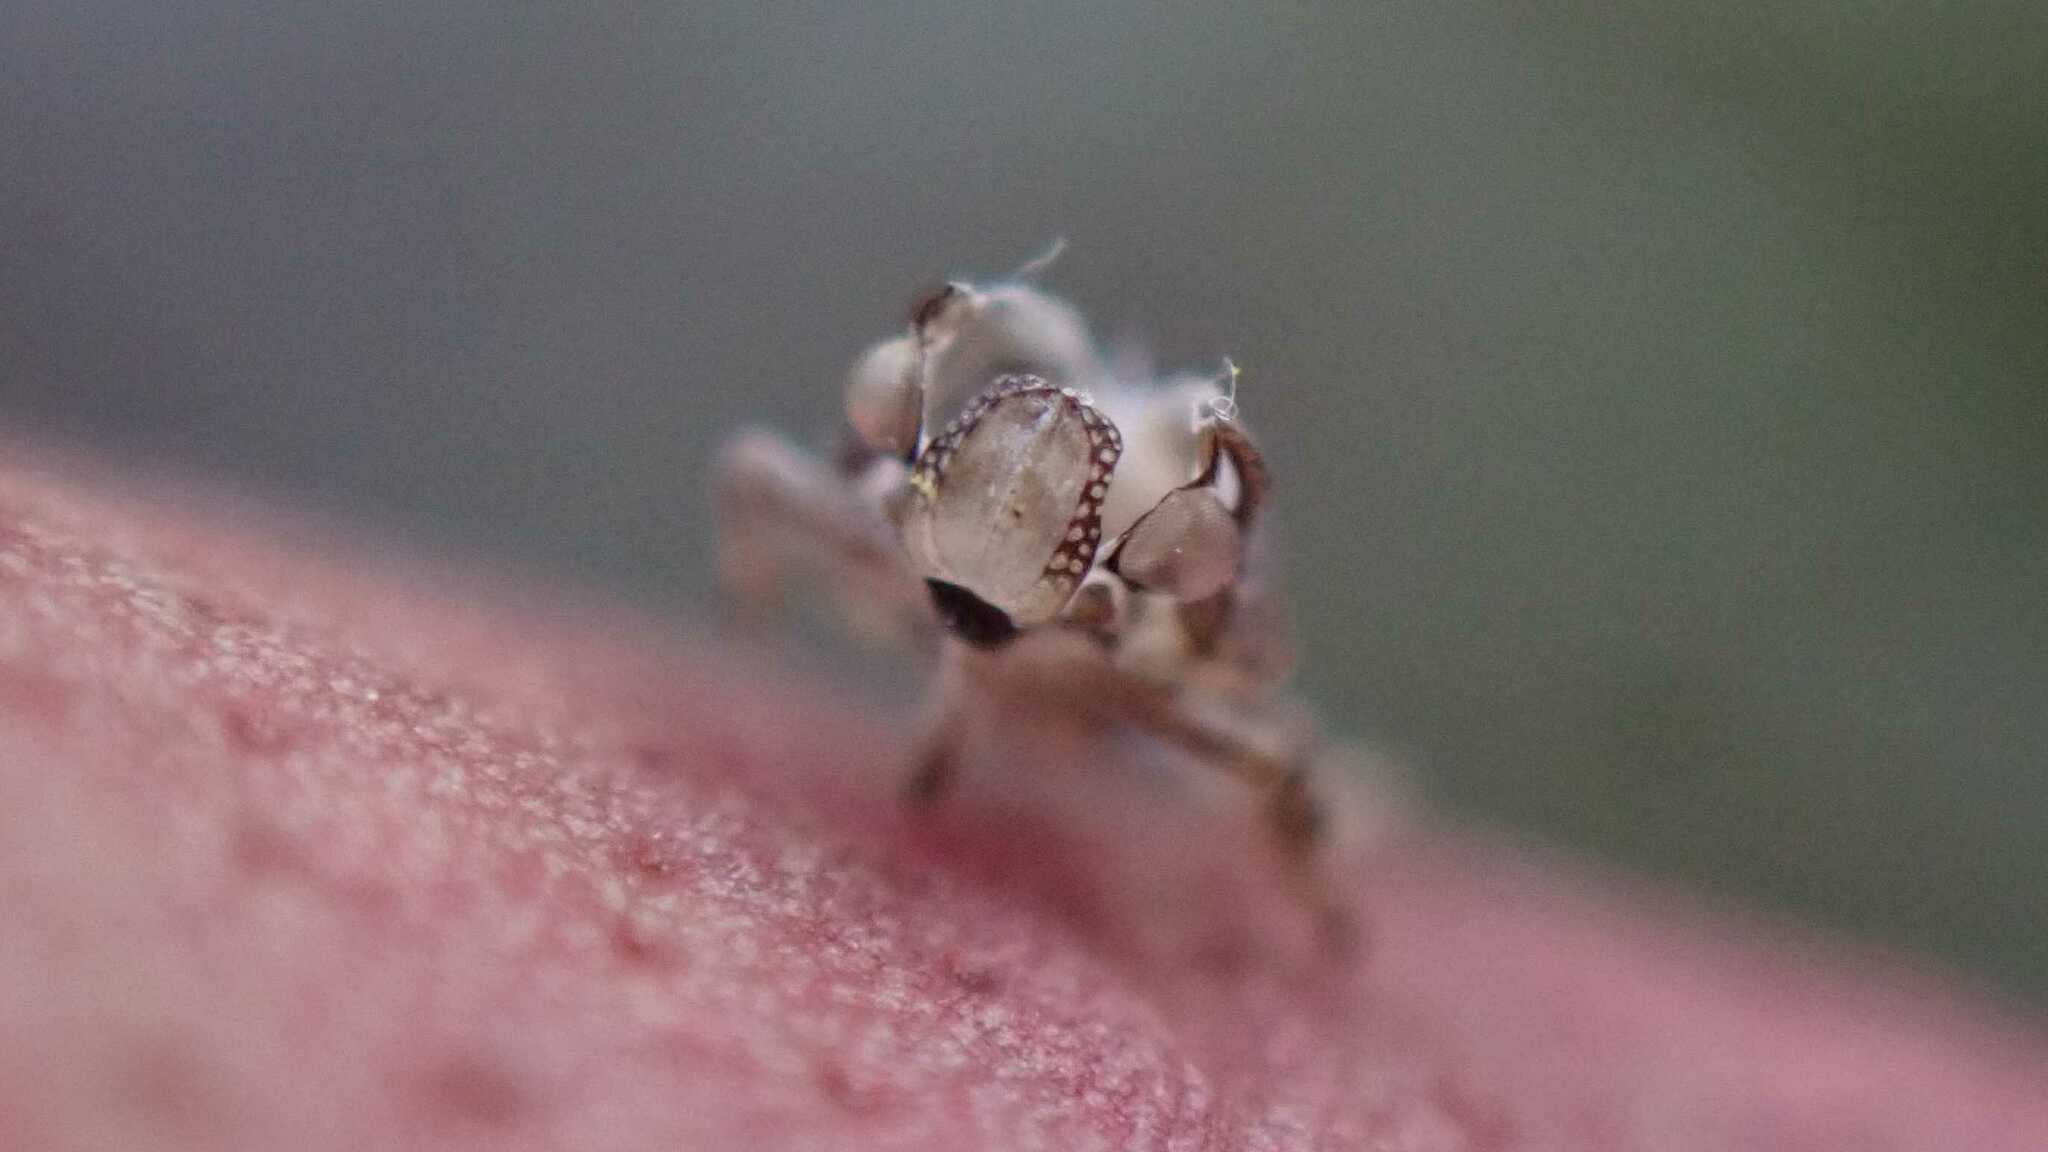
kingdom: Animalia
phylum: Arthropoda
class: Insecta
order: Hemiptera
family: Issidae
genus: Issus
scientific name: Issus coleoptratus
